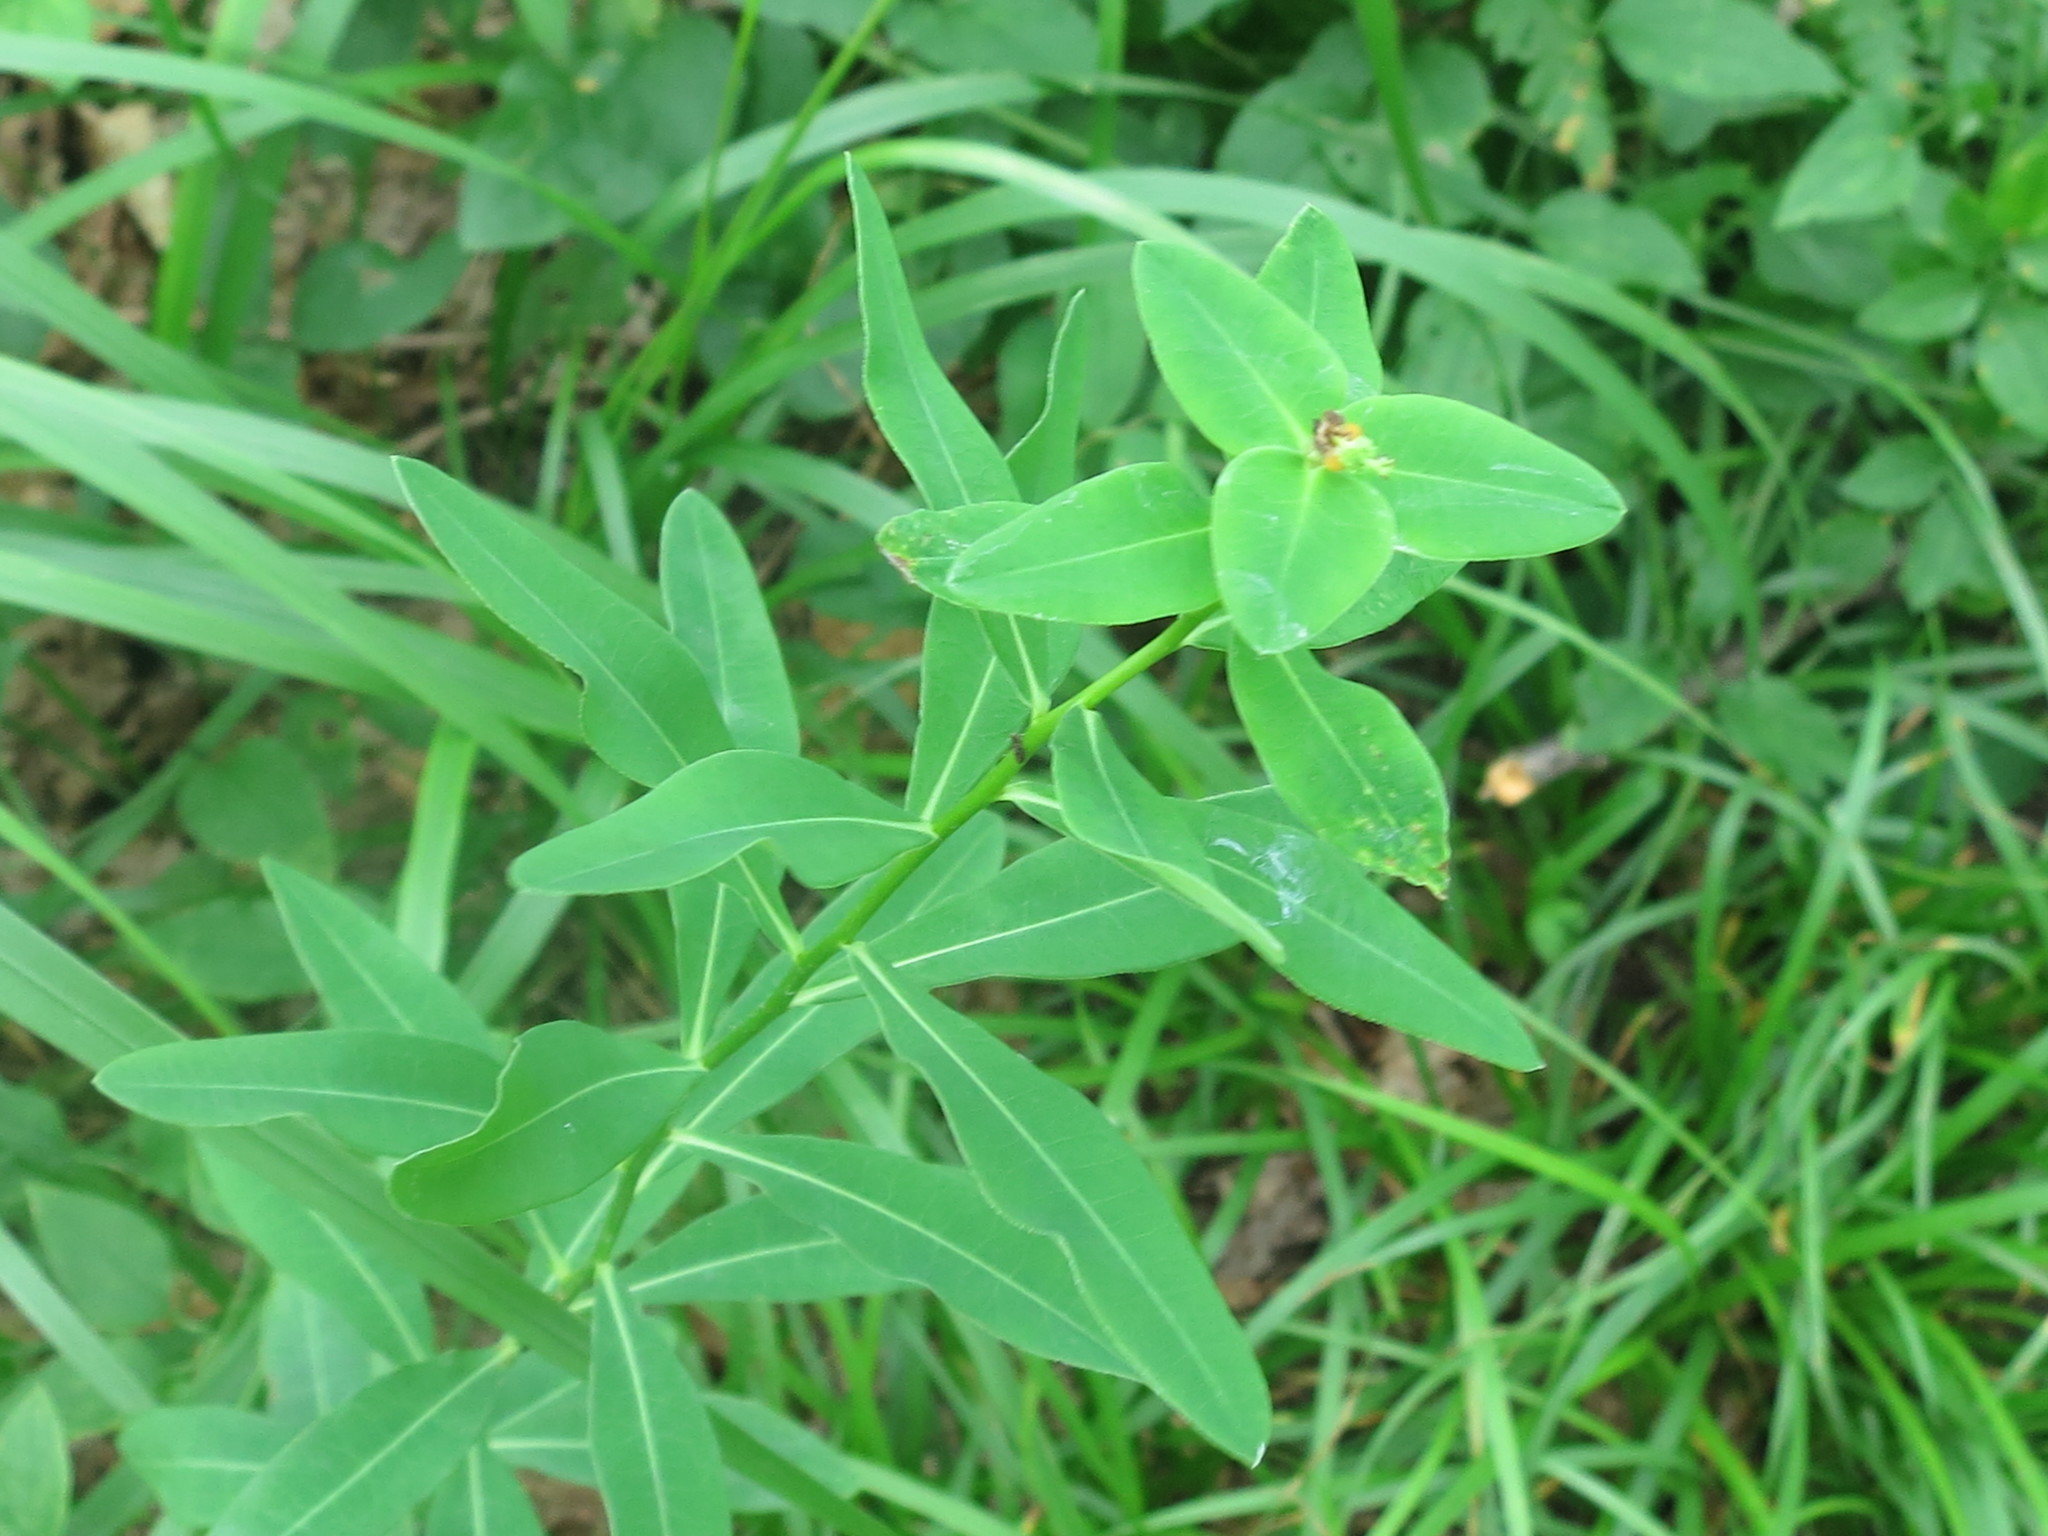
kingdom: Plantae
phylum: Tracheophyta
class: Magnoliopsida
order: Malpighiales
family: Euphorbiaceae
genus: Euphorbia
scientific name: Euphorbia lucorum
